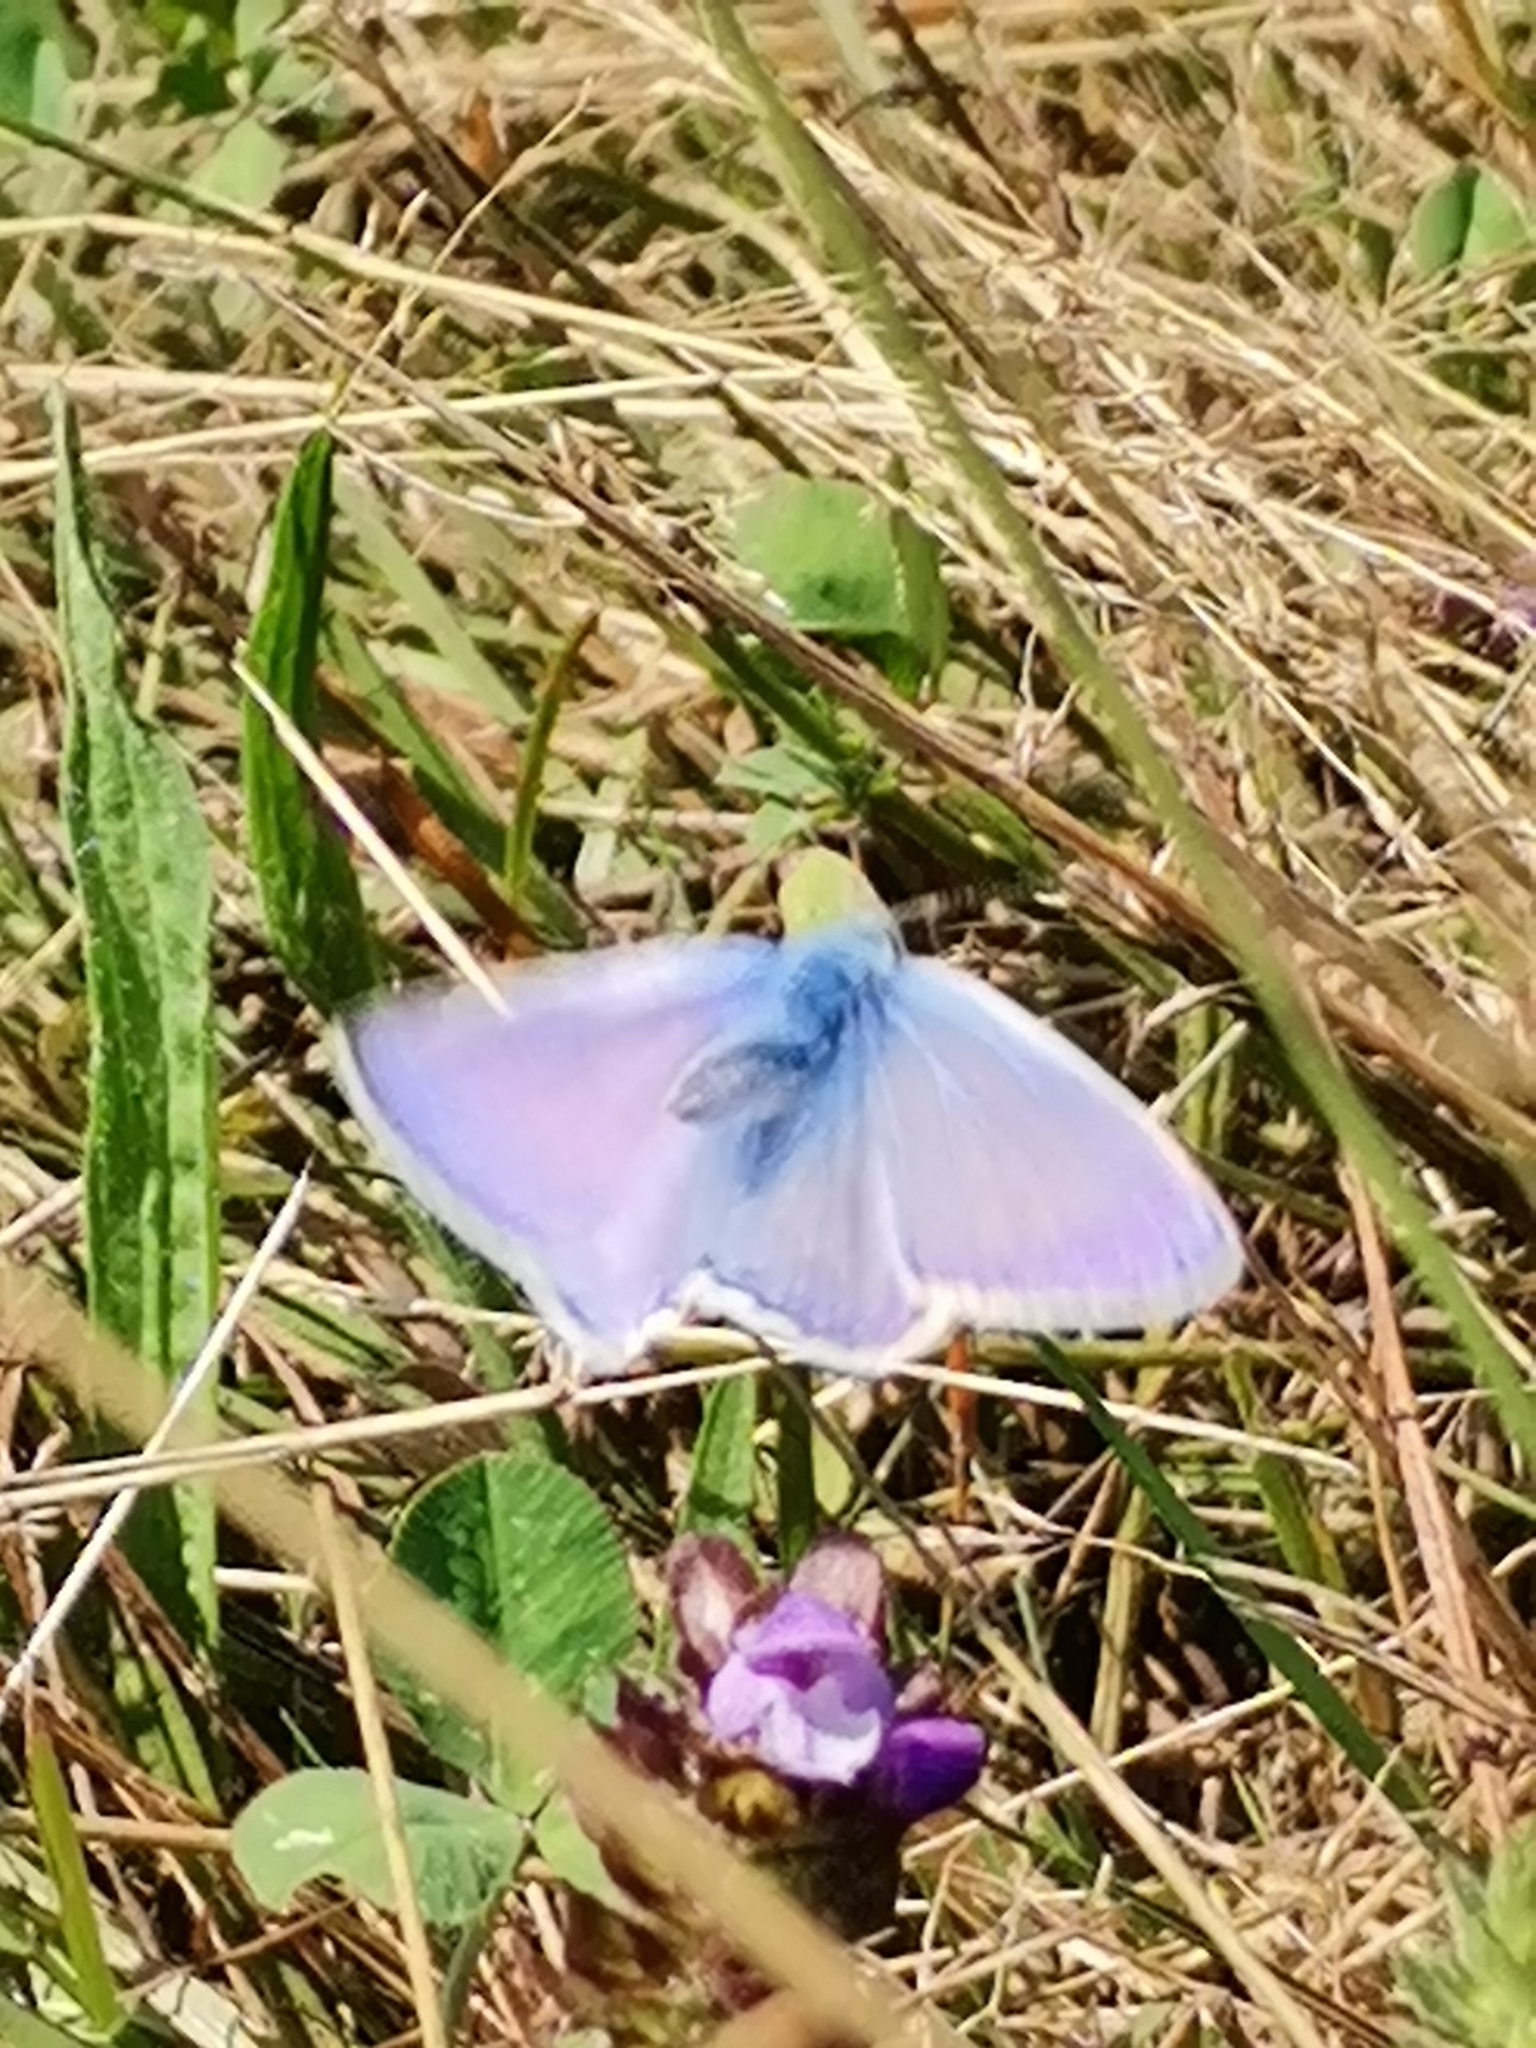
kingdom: Animalia
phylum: Arthropoda
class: Insecta
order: Lepidoptera
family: Lycaenidae
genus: Polyommatus
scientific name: Polyommatus icarus
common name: Common blue
